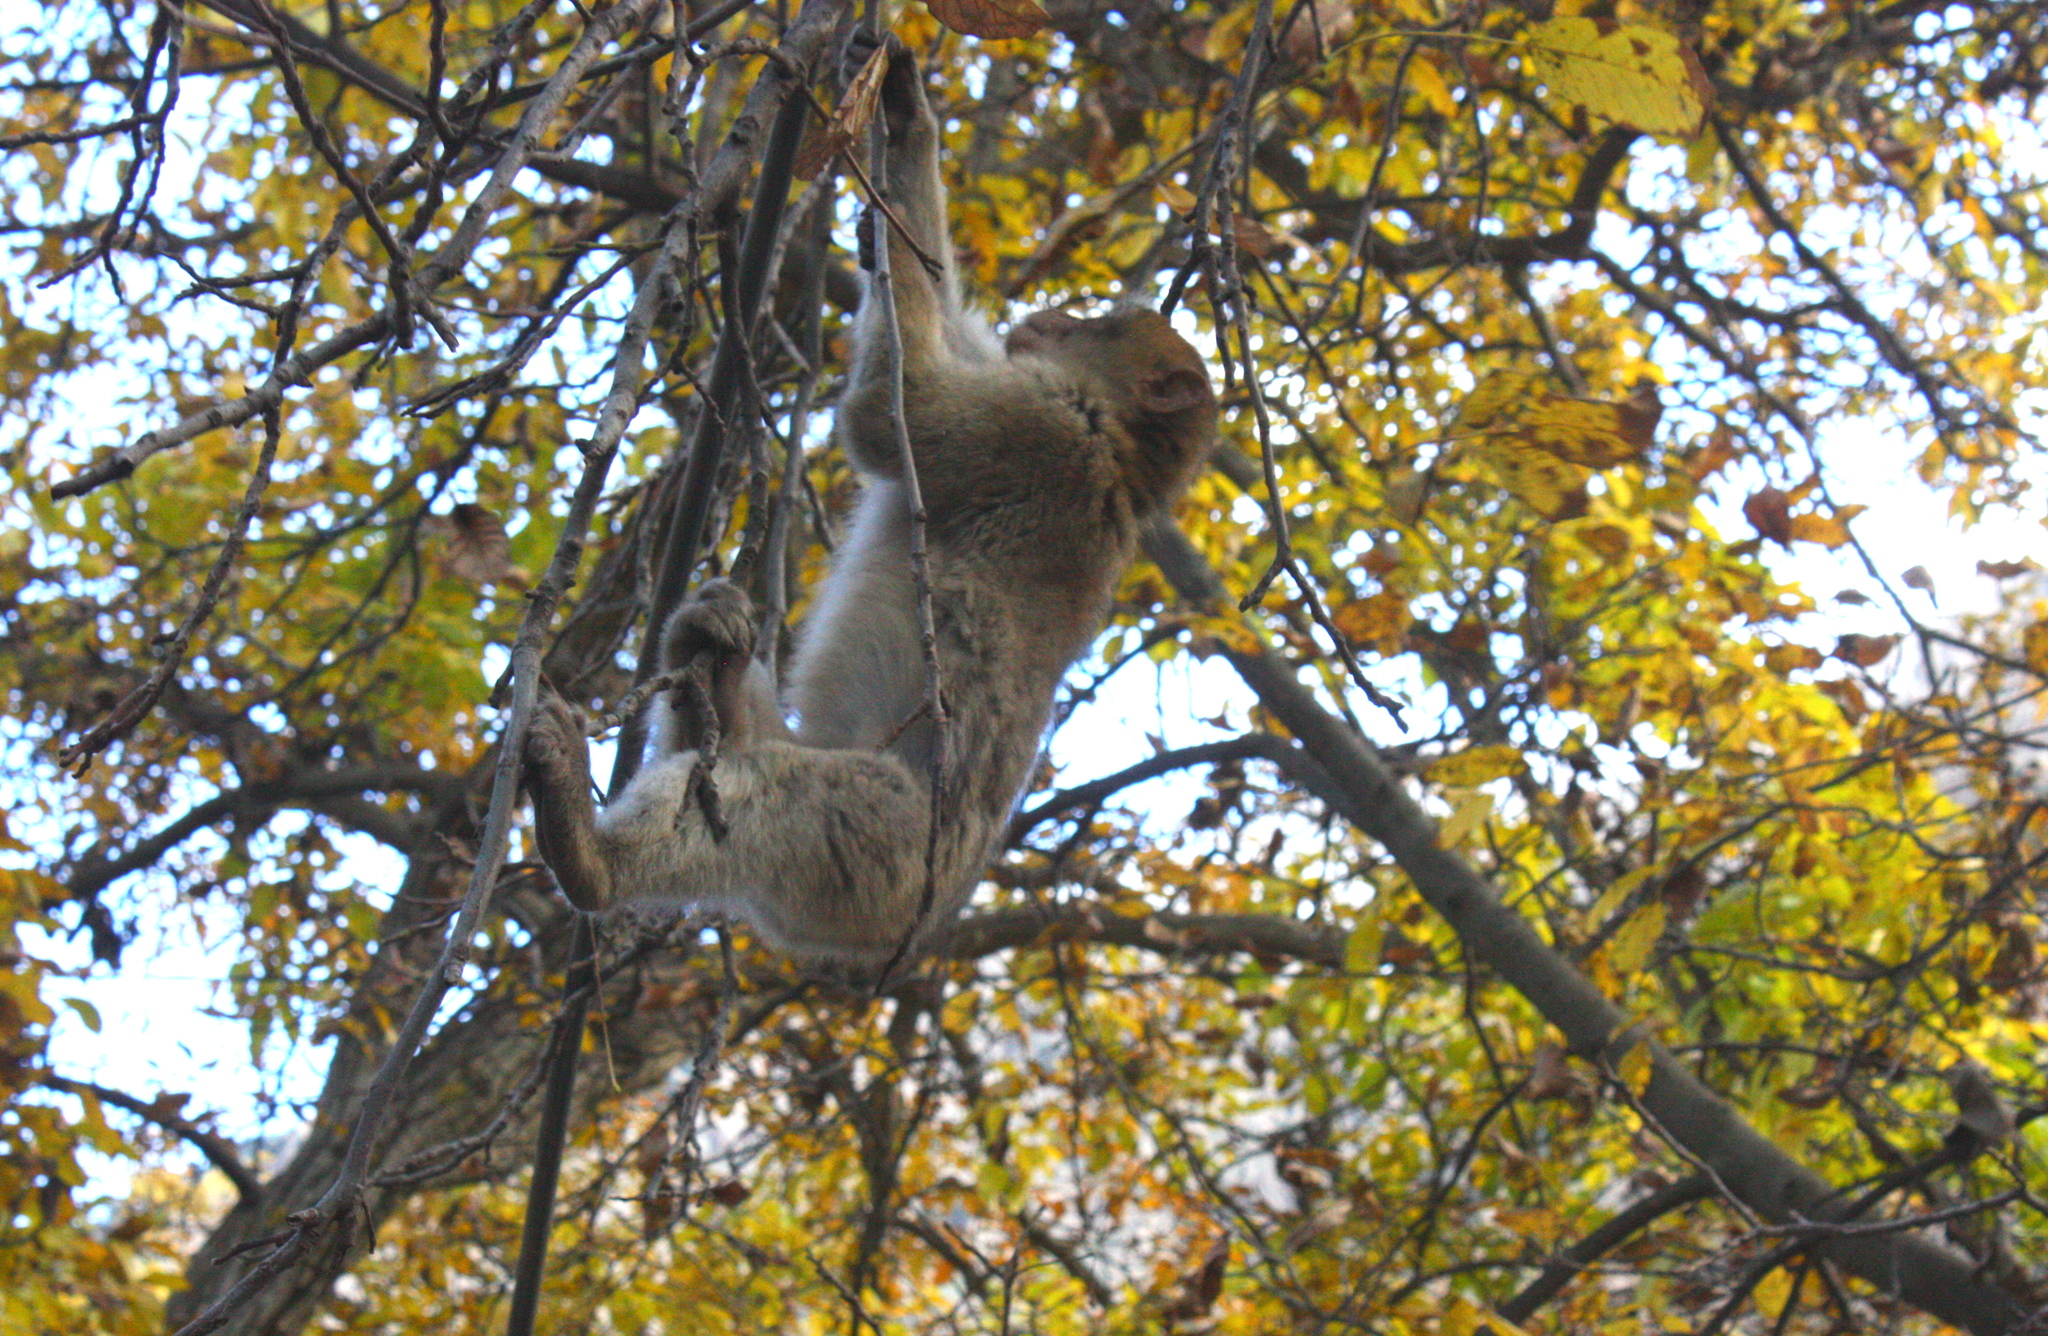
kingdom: Animalia
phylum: Chordata
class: Mammalia
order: Primates
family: Cercopithecidae
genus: Macaca
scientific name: Macaca sylvanus
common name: Barbary macaque
